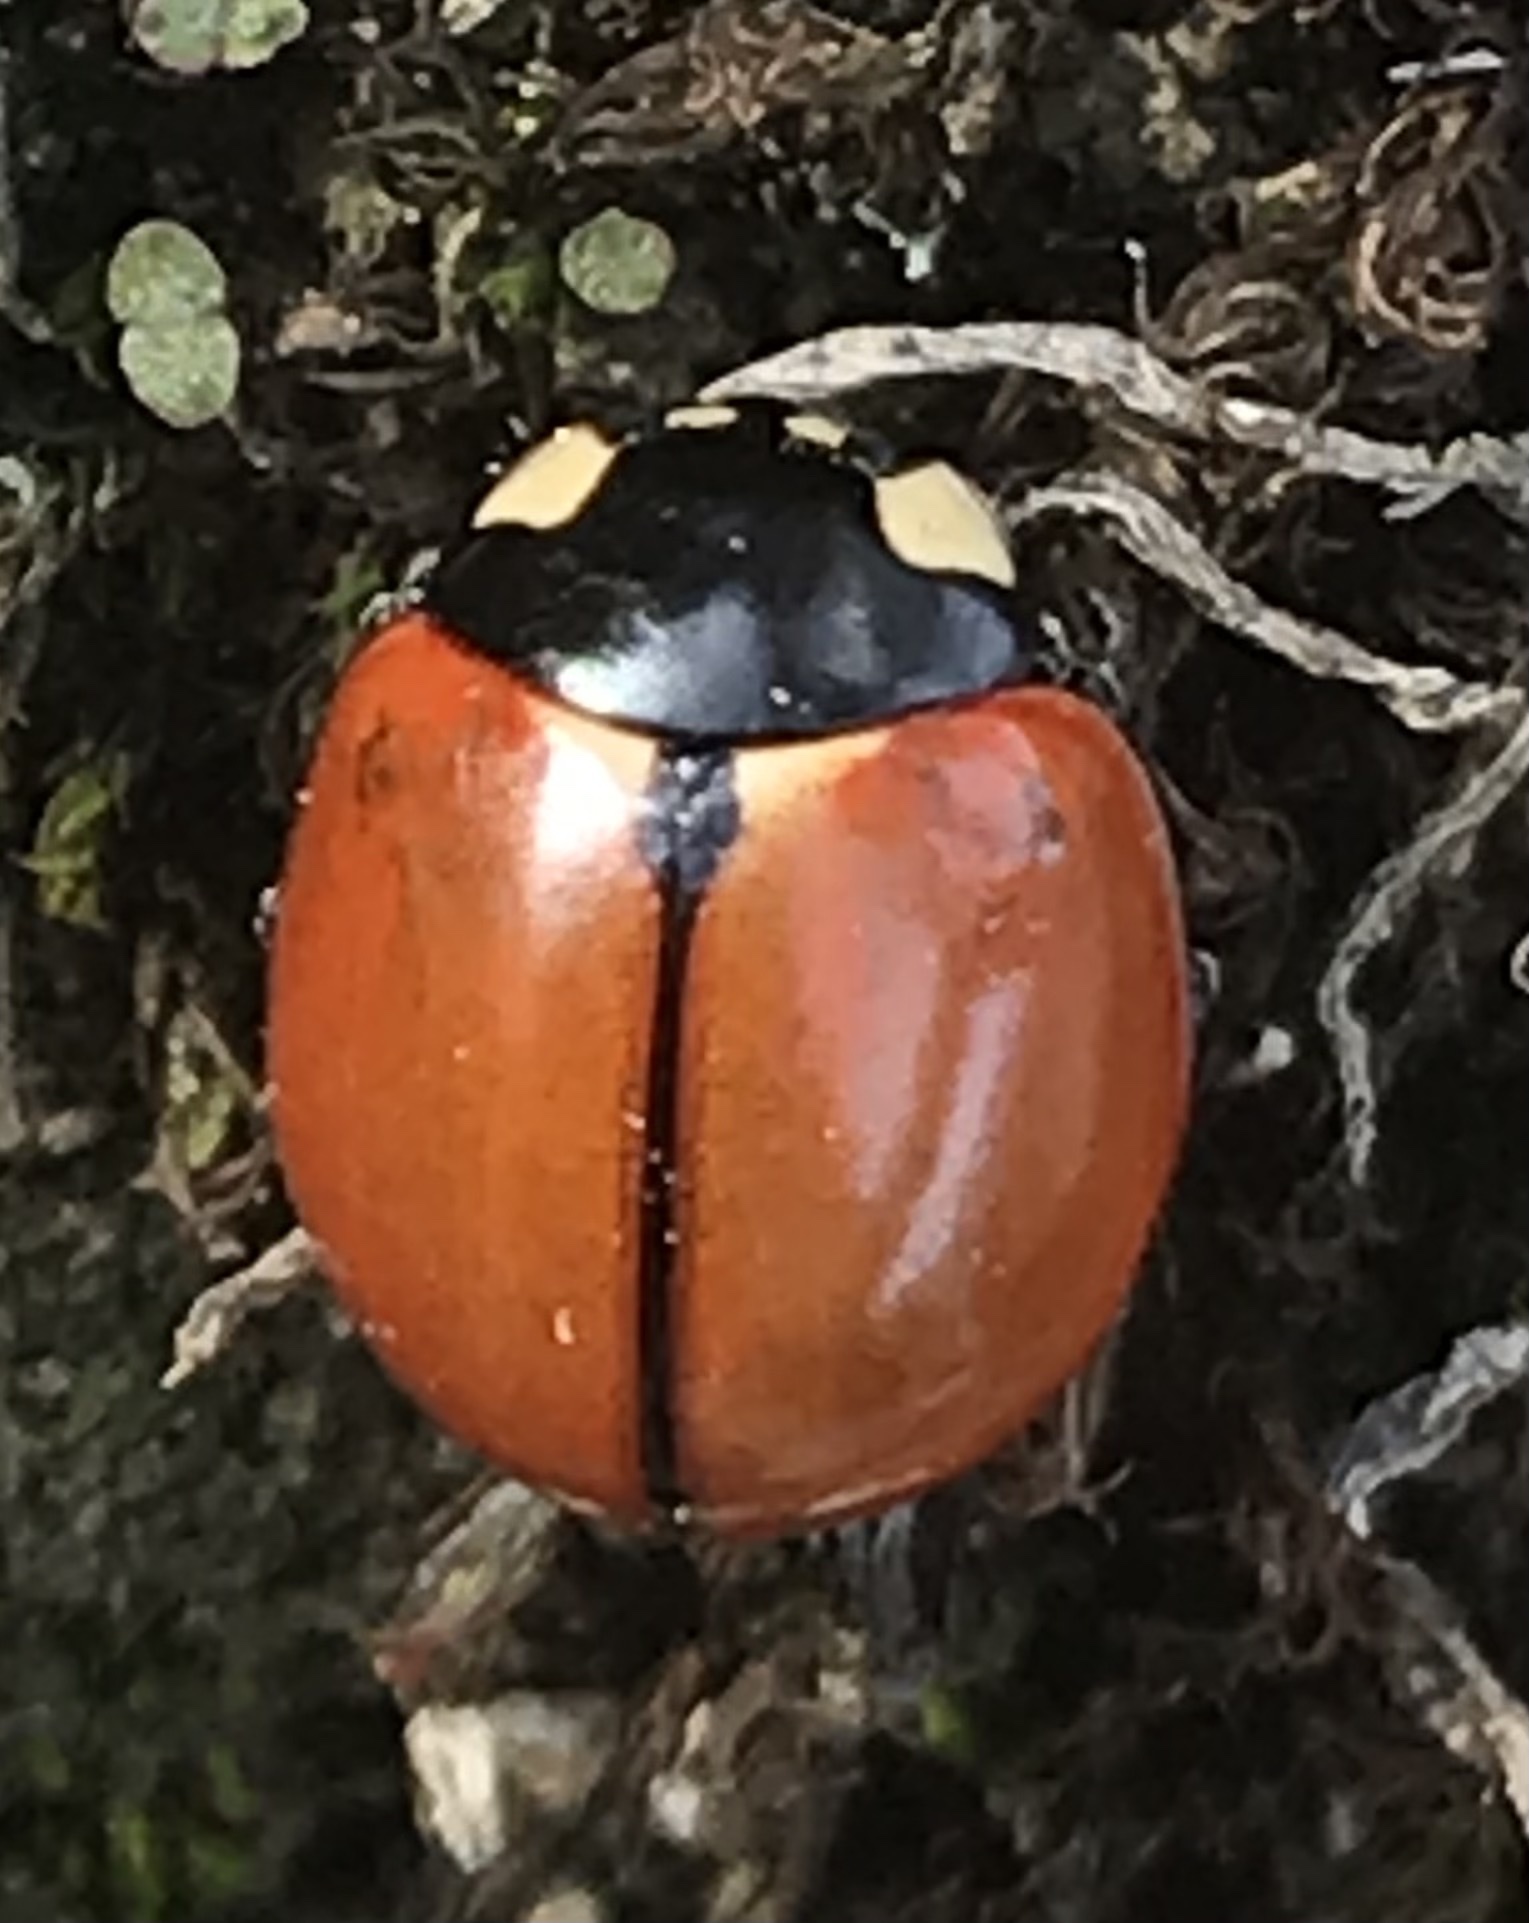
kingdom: Animalia
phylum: Arthropoda
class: Insecta
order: Coleoptera
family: Coccinellidae
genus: Coccinella
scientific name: Coccinella californica
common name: Lady beetle
